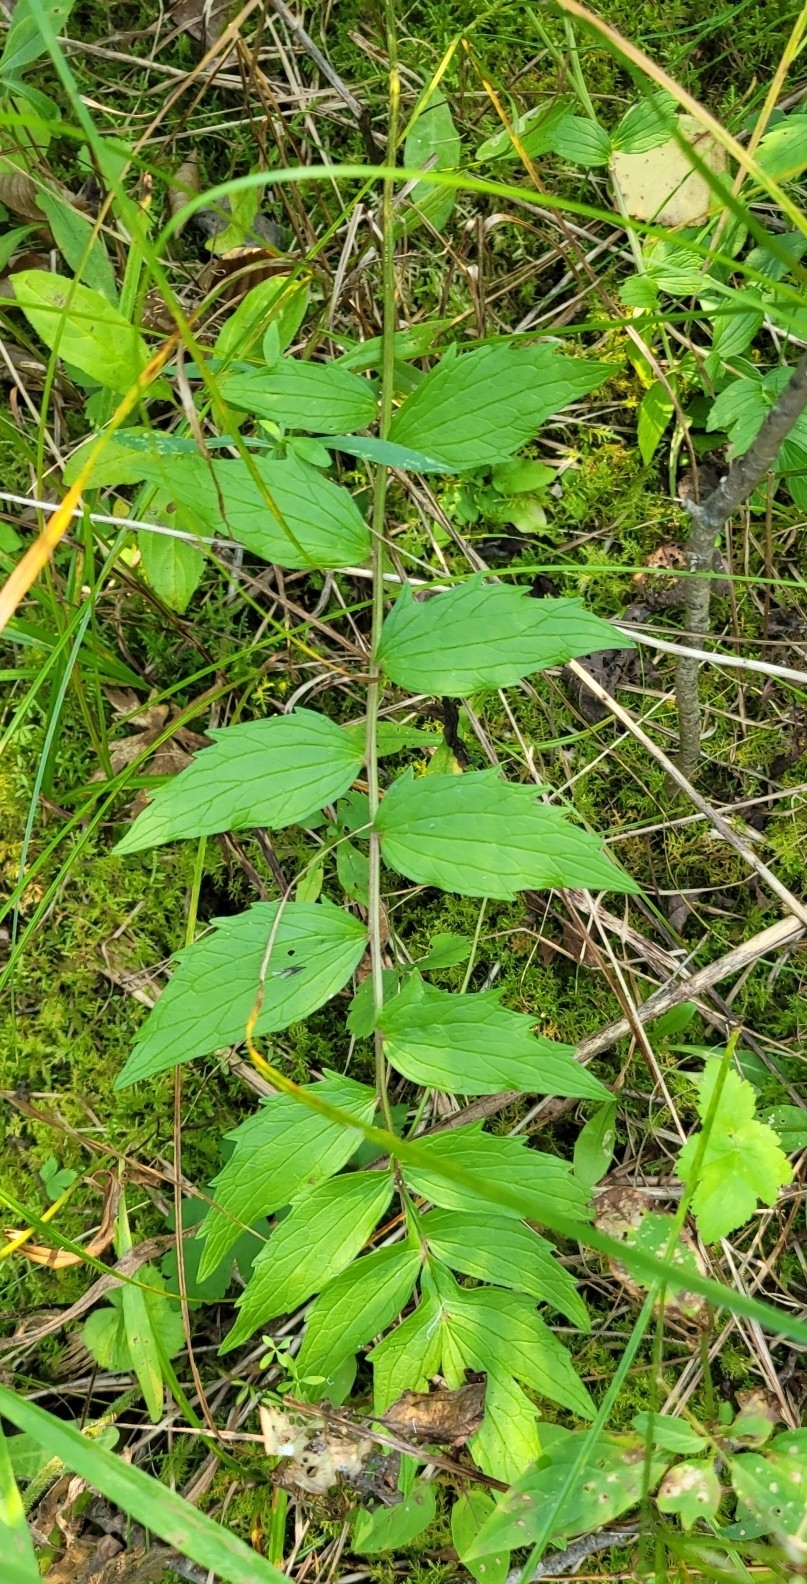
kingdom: Plantae
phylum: Tracheophyta
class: Magnoliopsida
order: Dipsacales
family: Caprifoliaceae
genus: Valeriana
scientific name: Valeriana officinalis
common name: Common valerian
